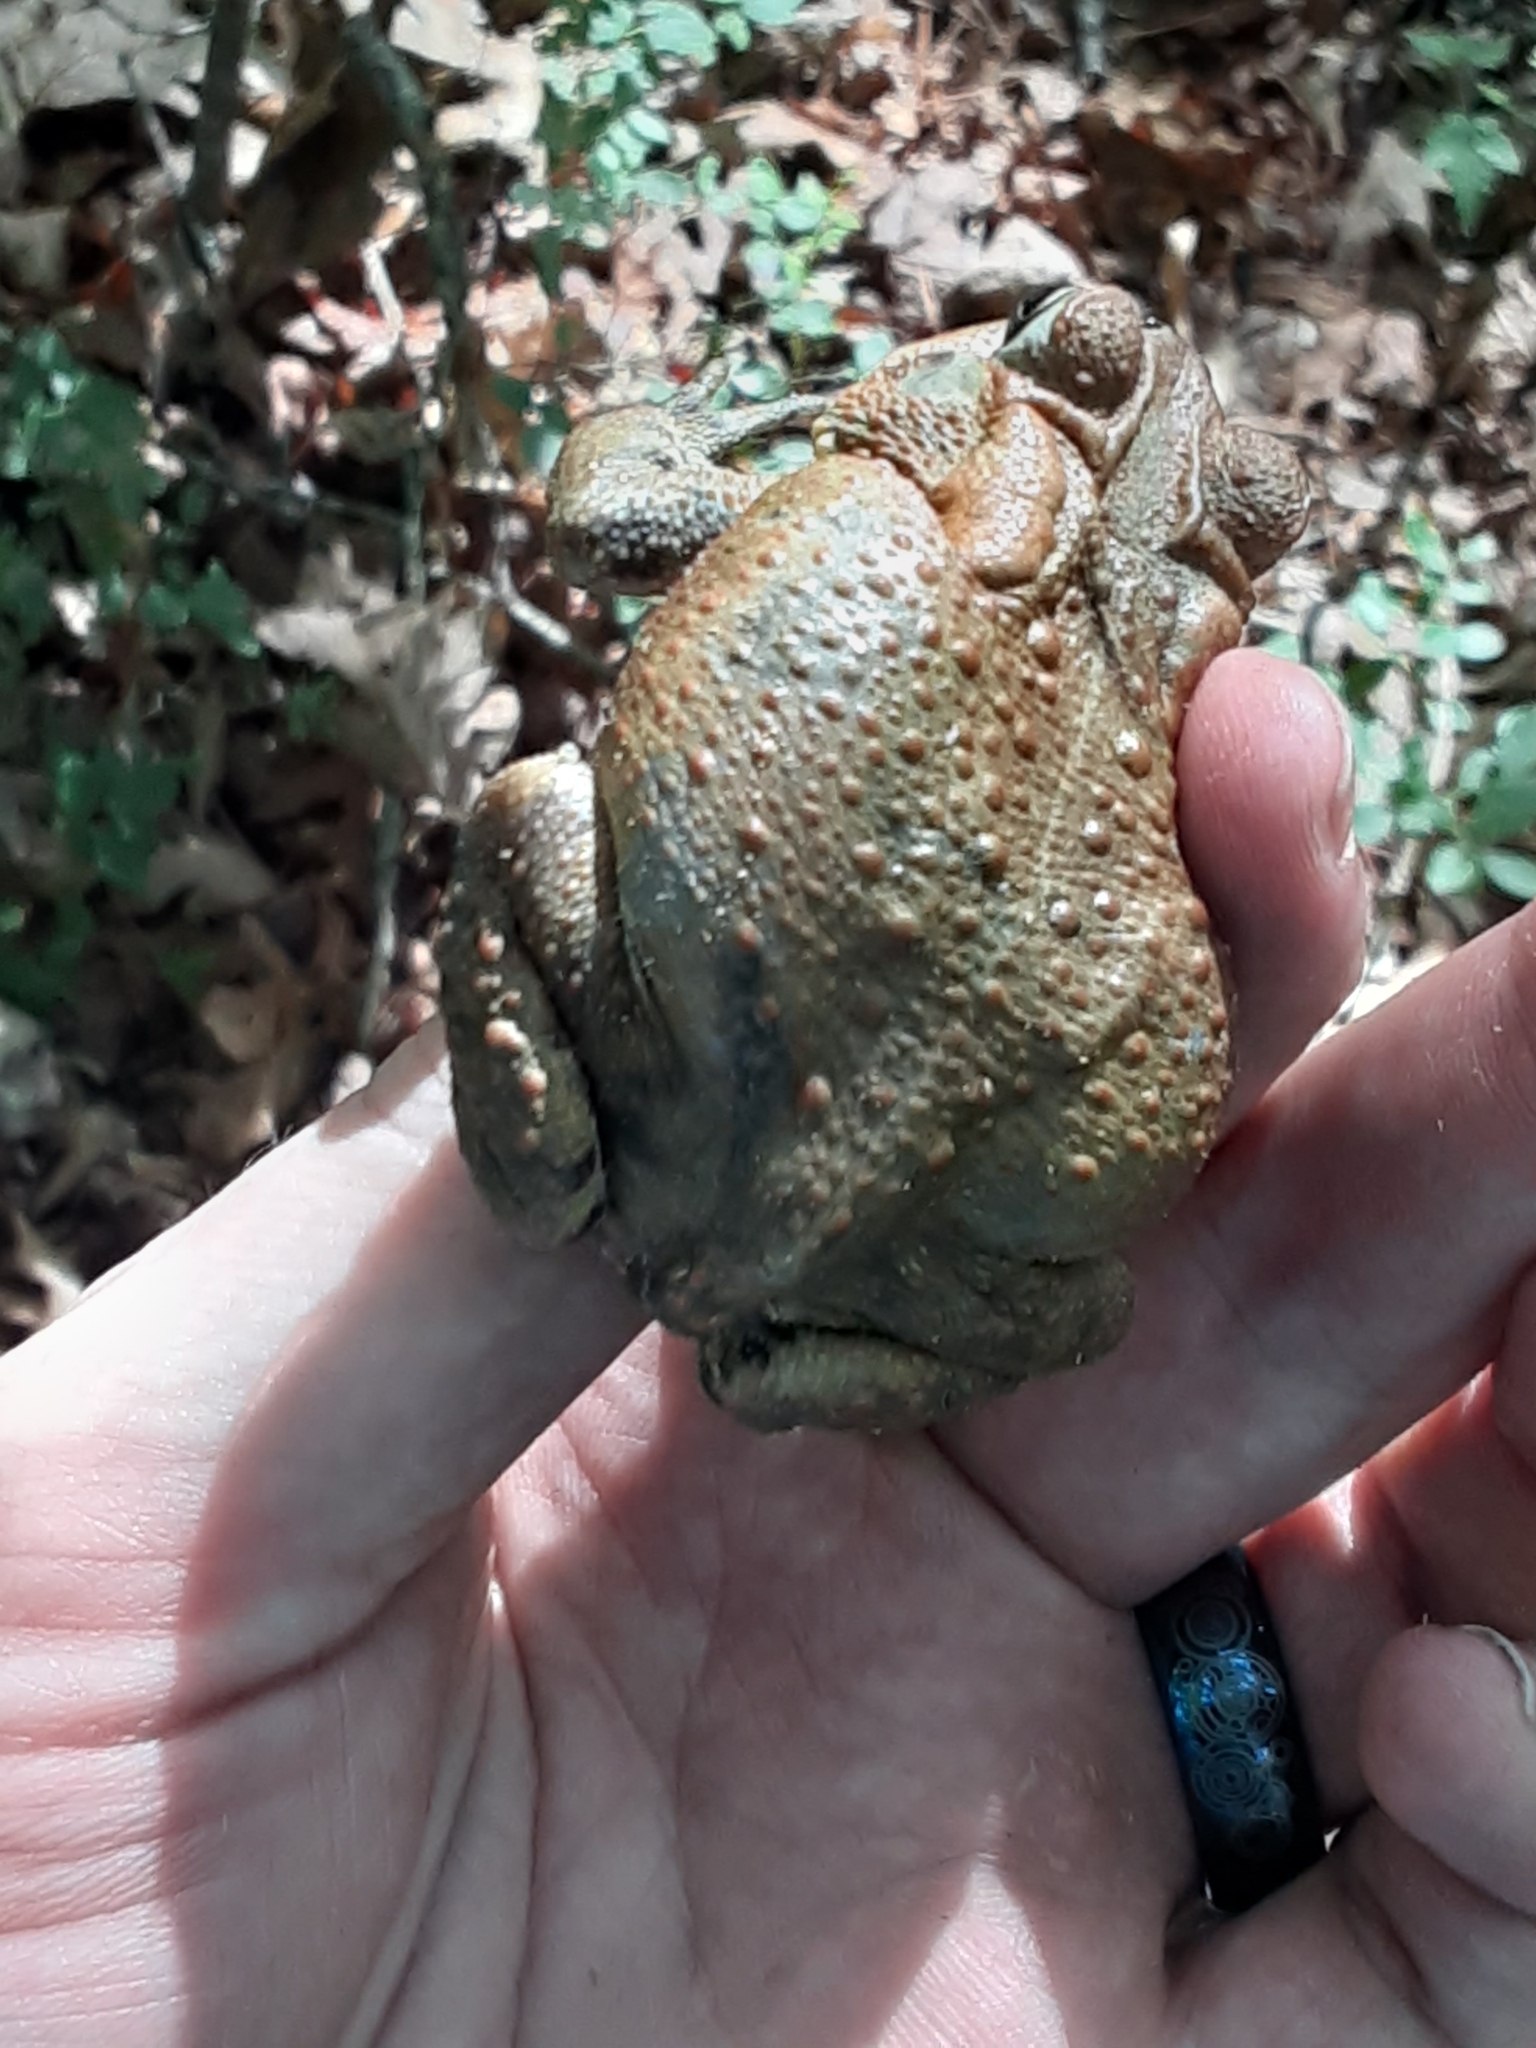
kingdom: Animalia
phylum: Chordata
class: Amphibia
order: Anura
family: Bufonidae
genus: Anaxyrus
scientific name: Anaxyrus americanus
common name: American toad
